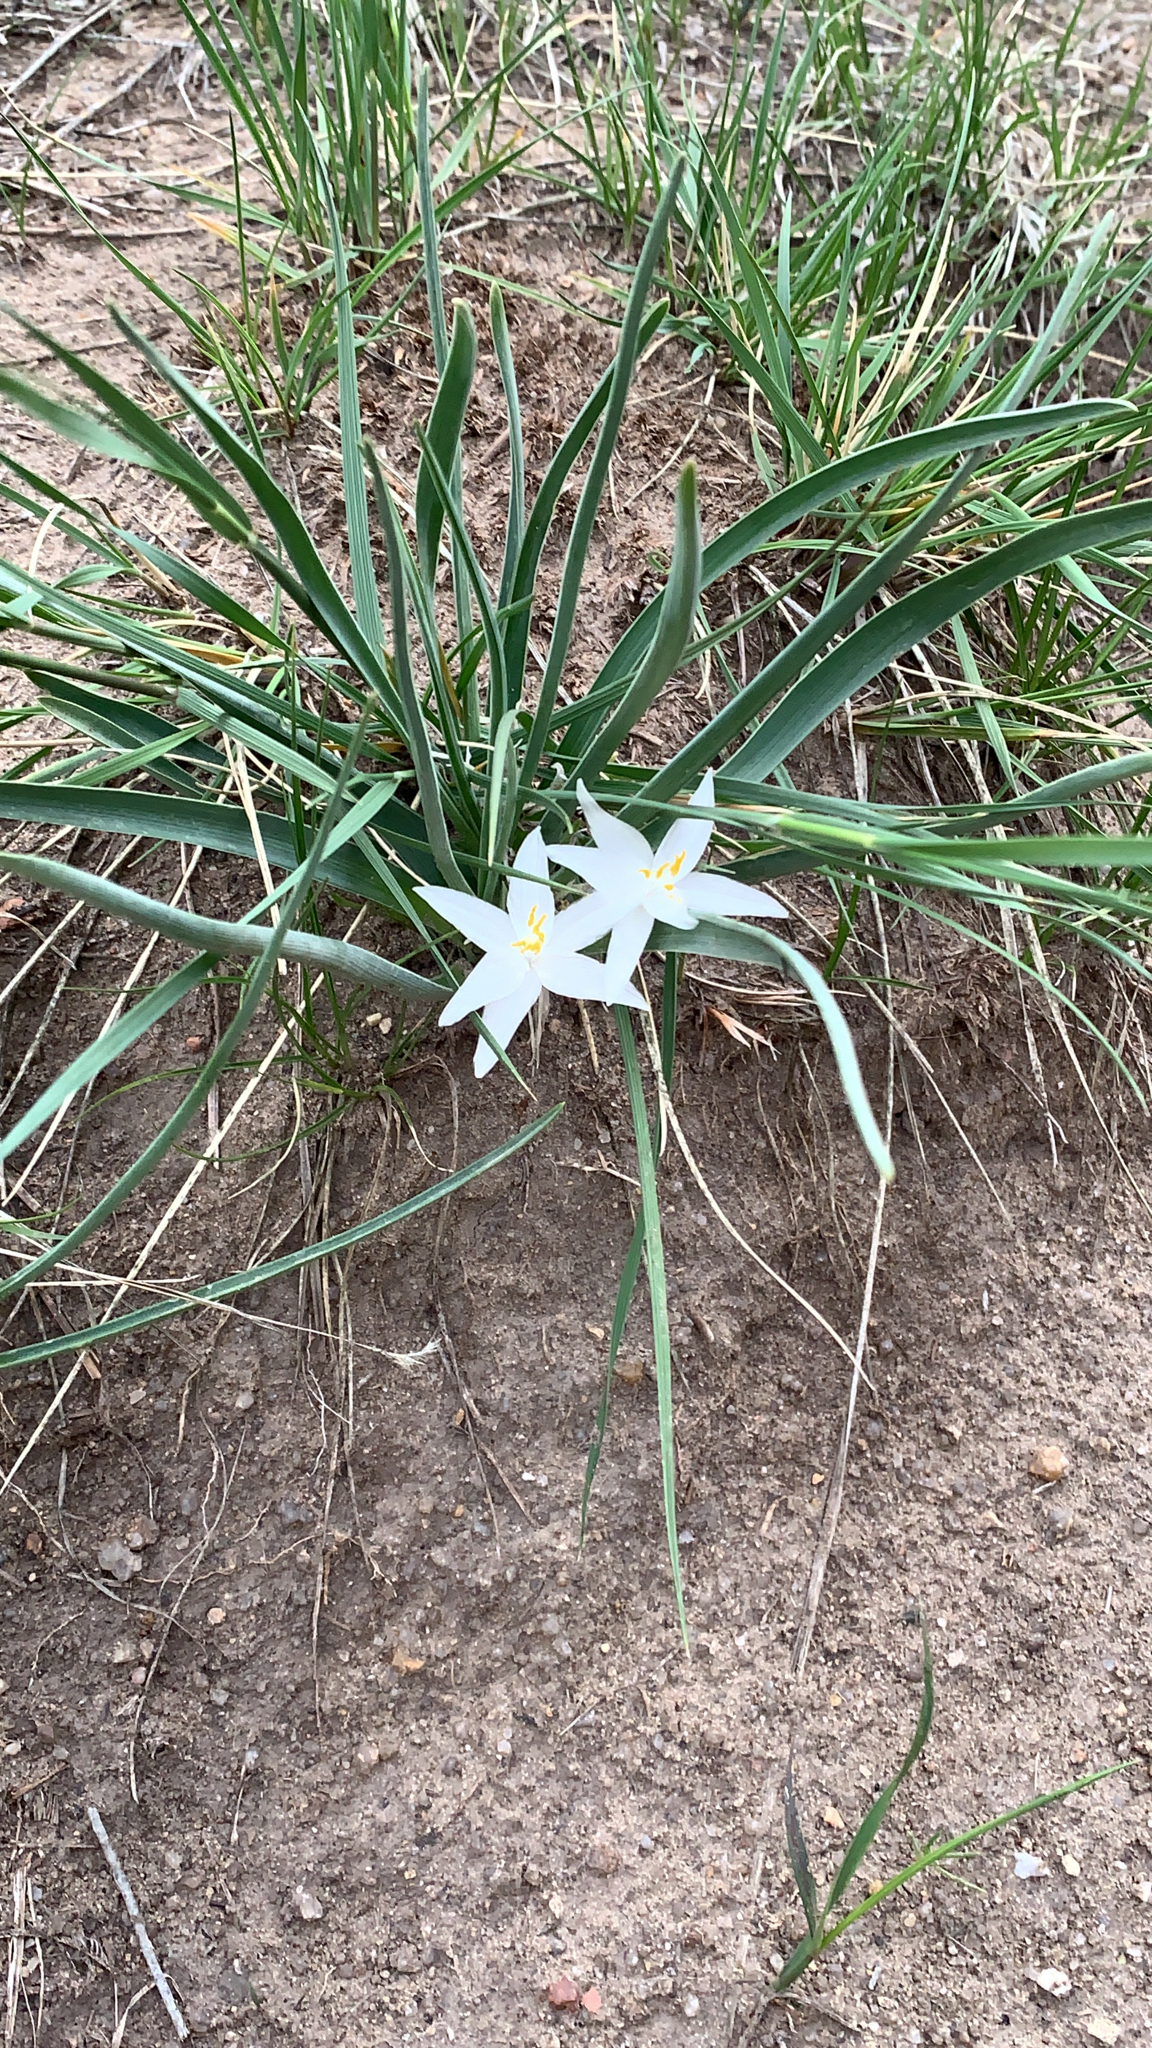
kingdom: Plantae
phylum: Tracheophyta
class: Liliopsida
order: Asparagales
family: Asparagaceae
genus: Leucocrinum
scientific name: Leucocrinum montanum
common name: Mountain-lily
